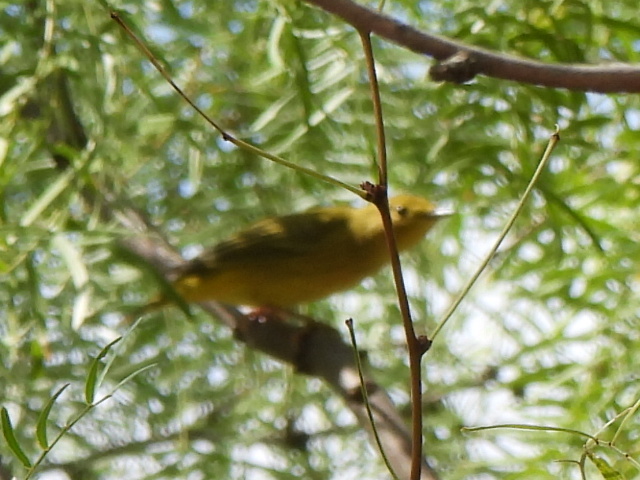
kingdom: Animalia
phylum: Chordata
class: Aves
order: Passeriformes
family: Parulidae
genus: Setophaga
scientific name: Setophaga petechia
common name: Yellow warbler
